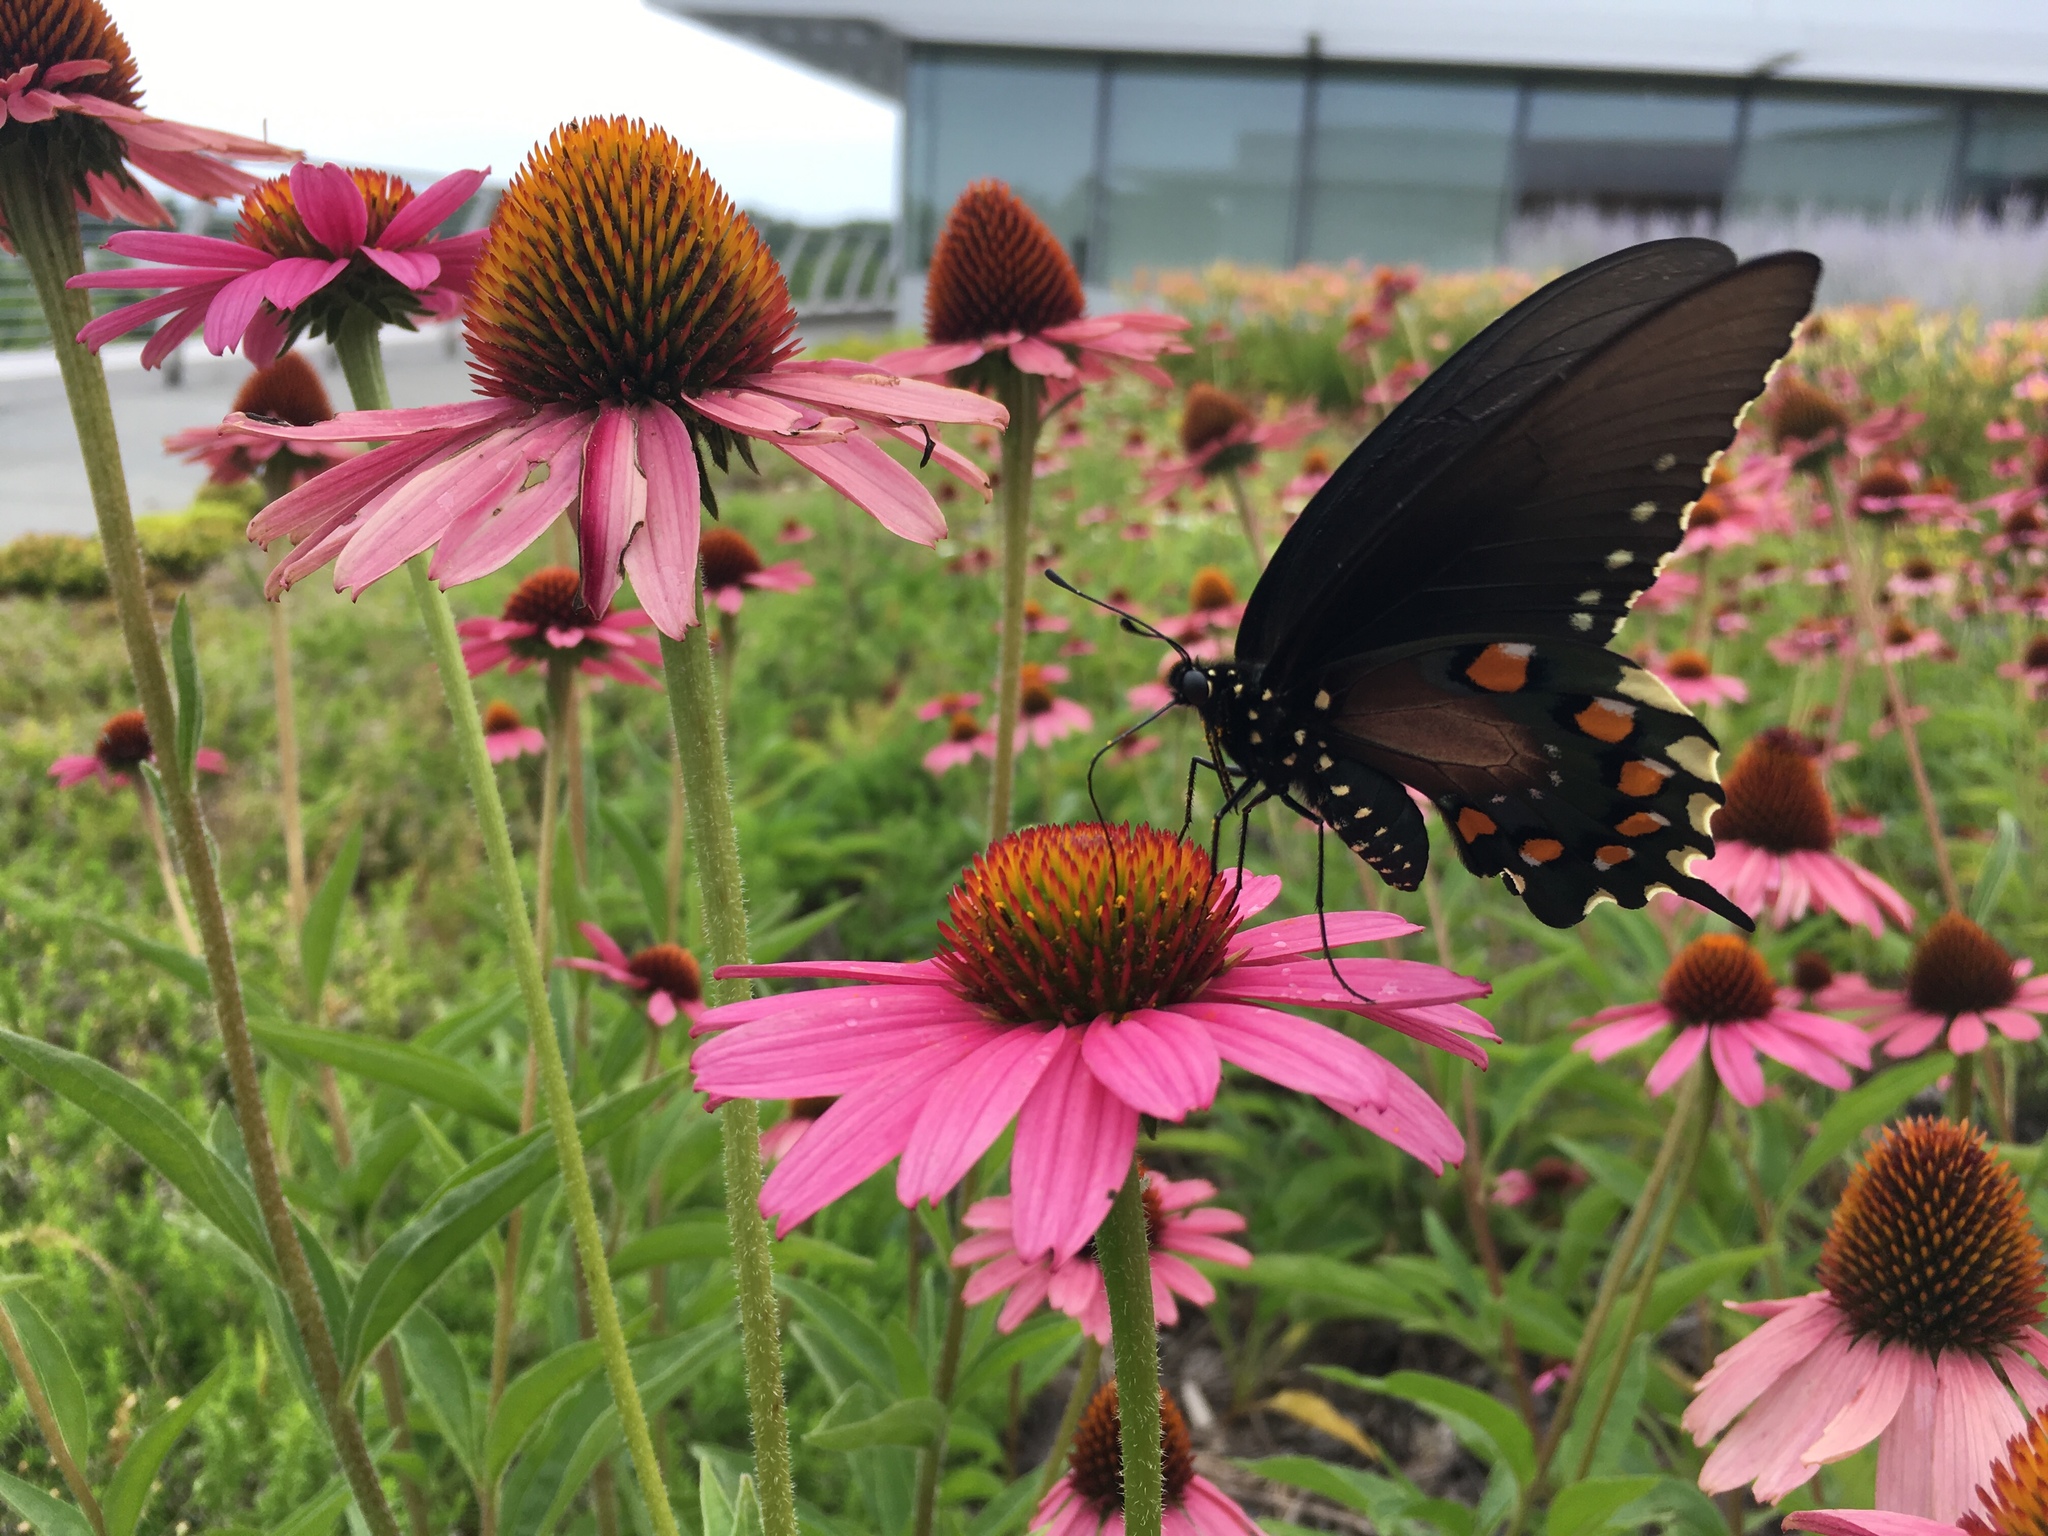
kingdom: Animalia
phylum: Arthropoda
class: Insecta
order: Lepidoptera
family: Papilionidae
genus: Battus
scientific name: Battus philenor
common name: Pipevine swallowtail
